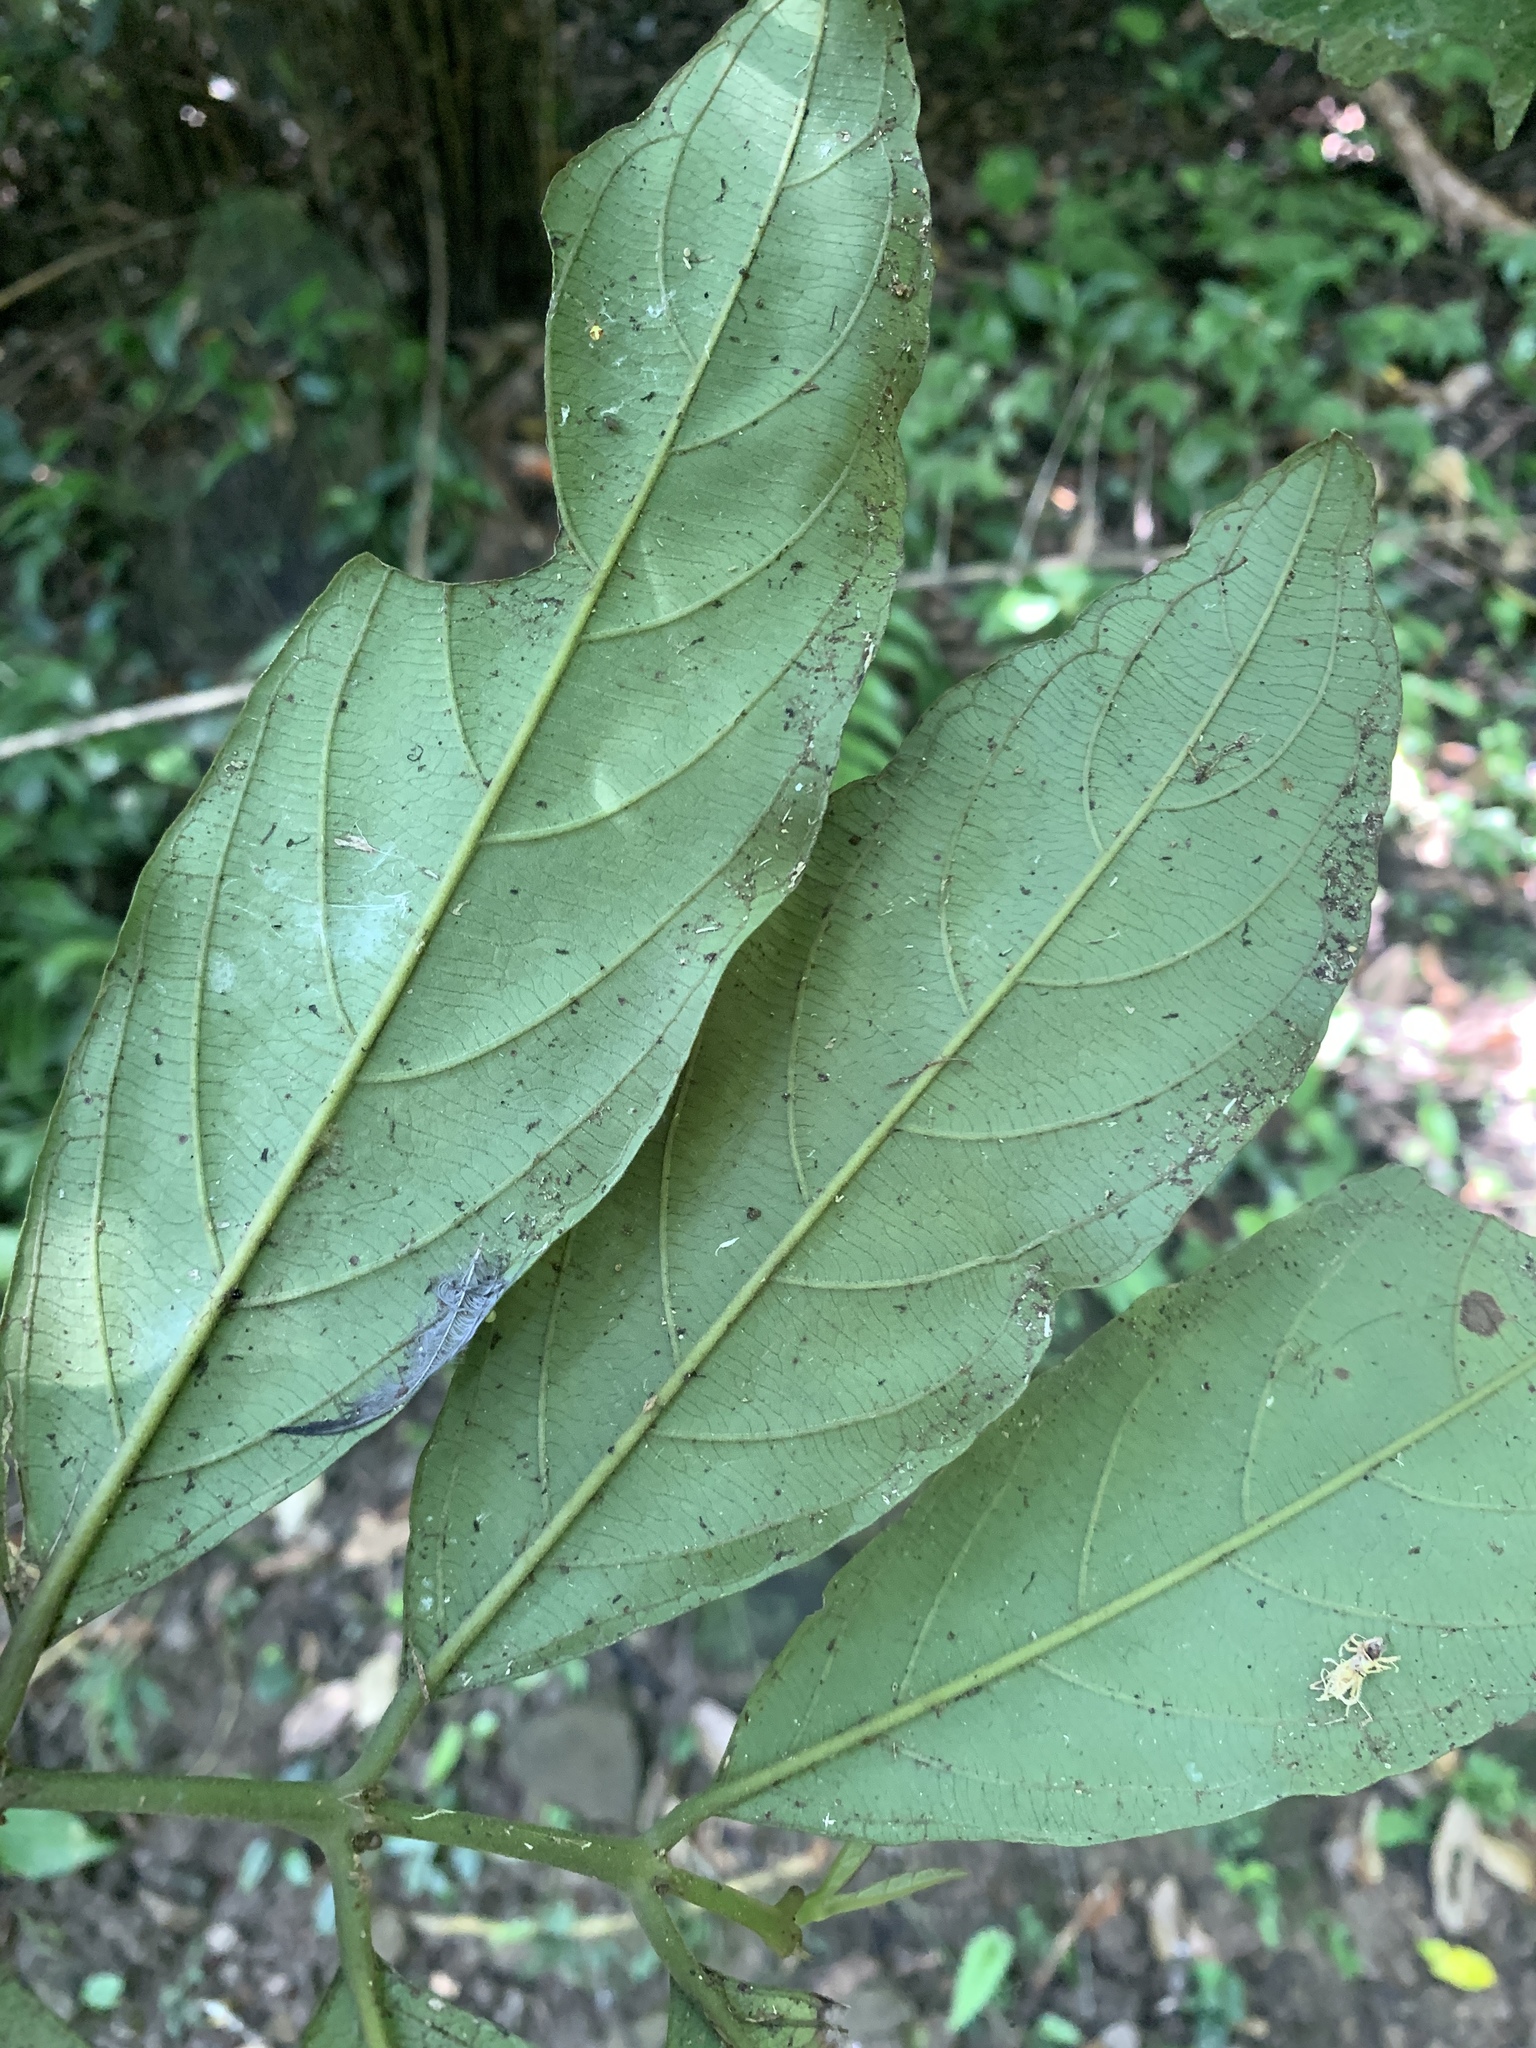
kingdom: Plantae
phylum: Tracheophyta
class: Magnoliopsida
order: Gentianales
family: Rubiaceae
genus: Lasianthus
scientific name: Lasianthus verticillatus
